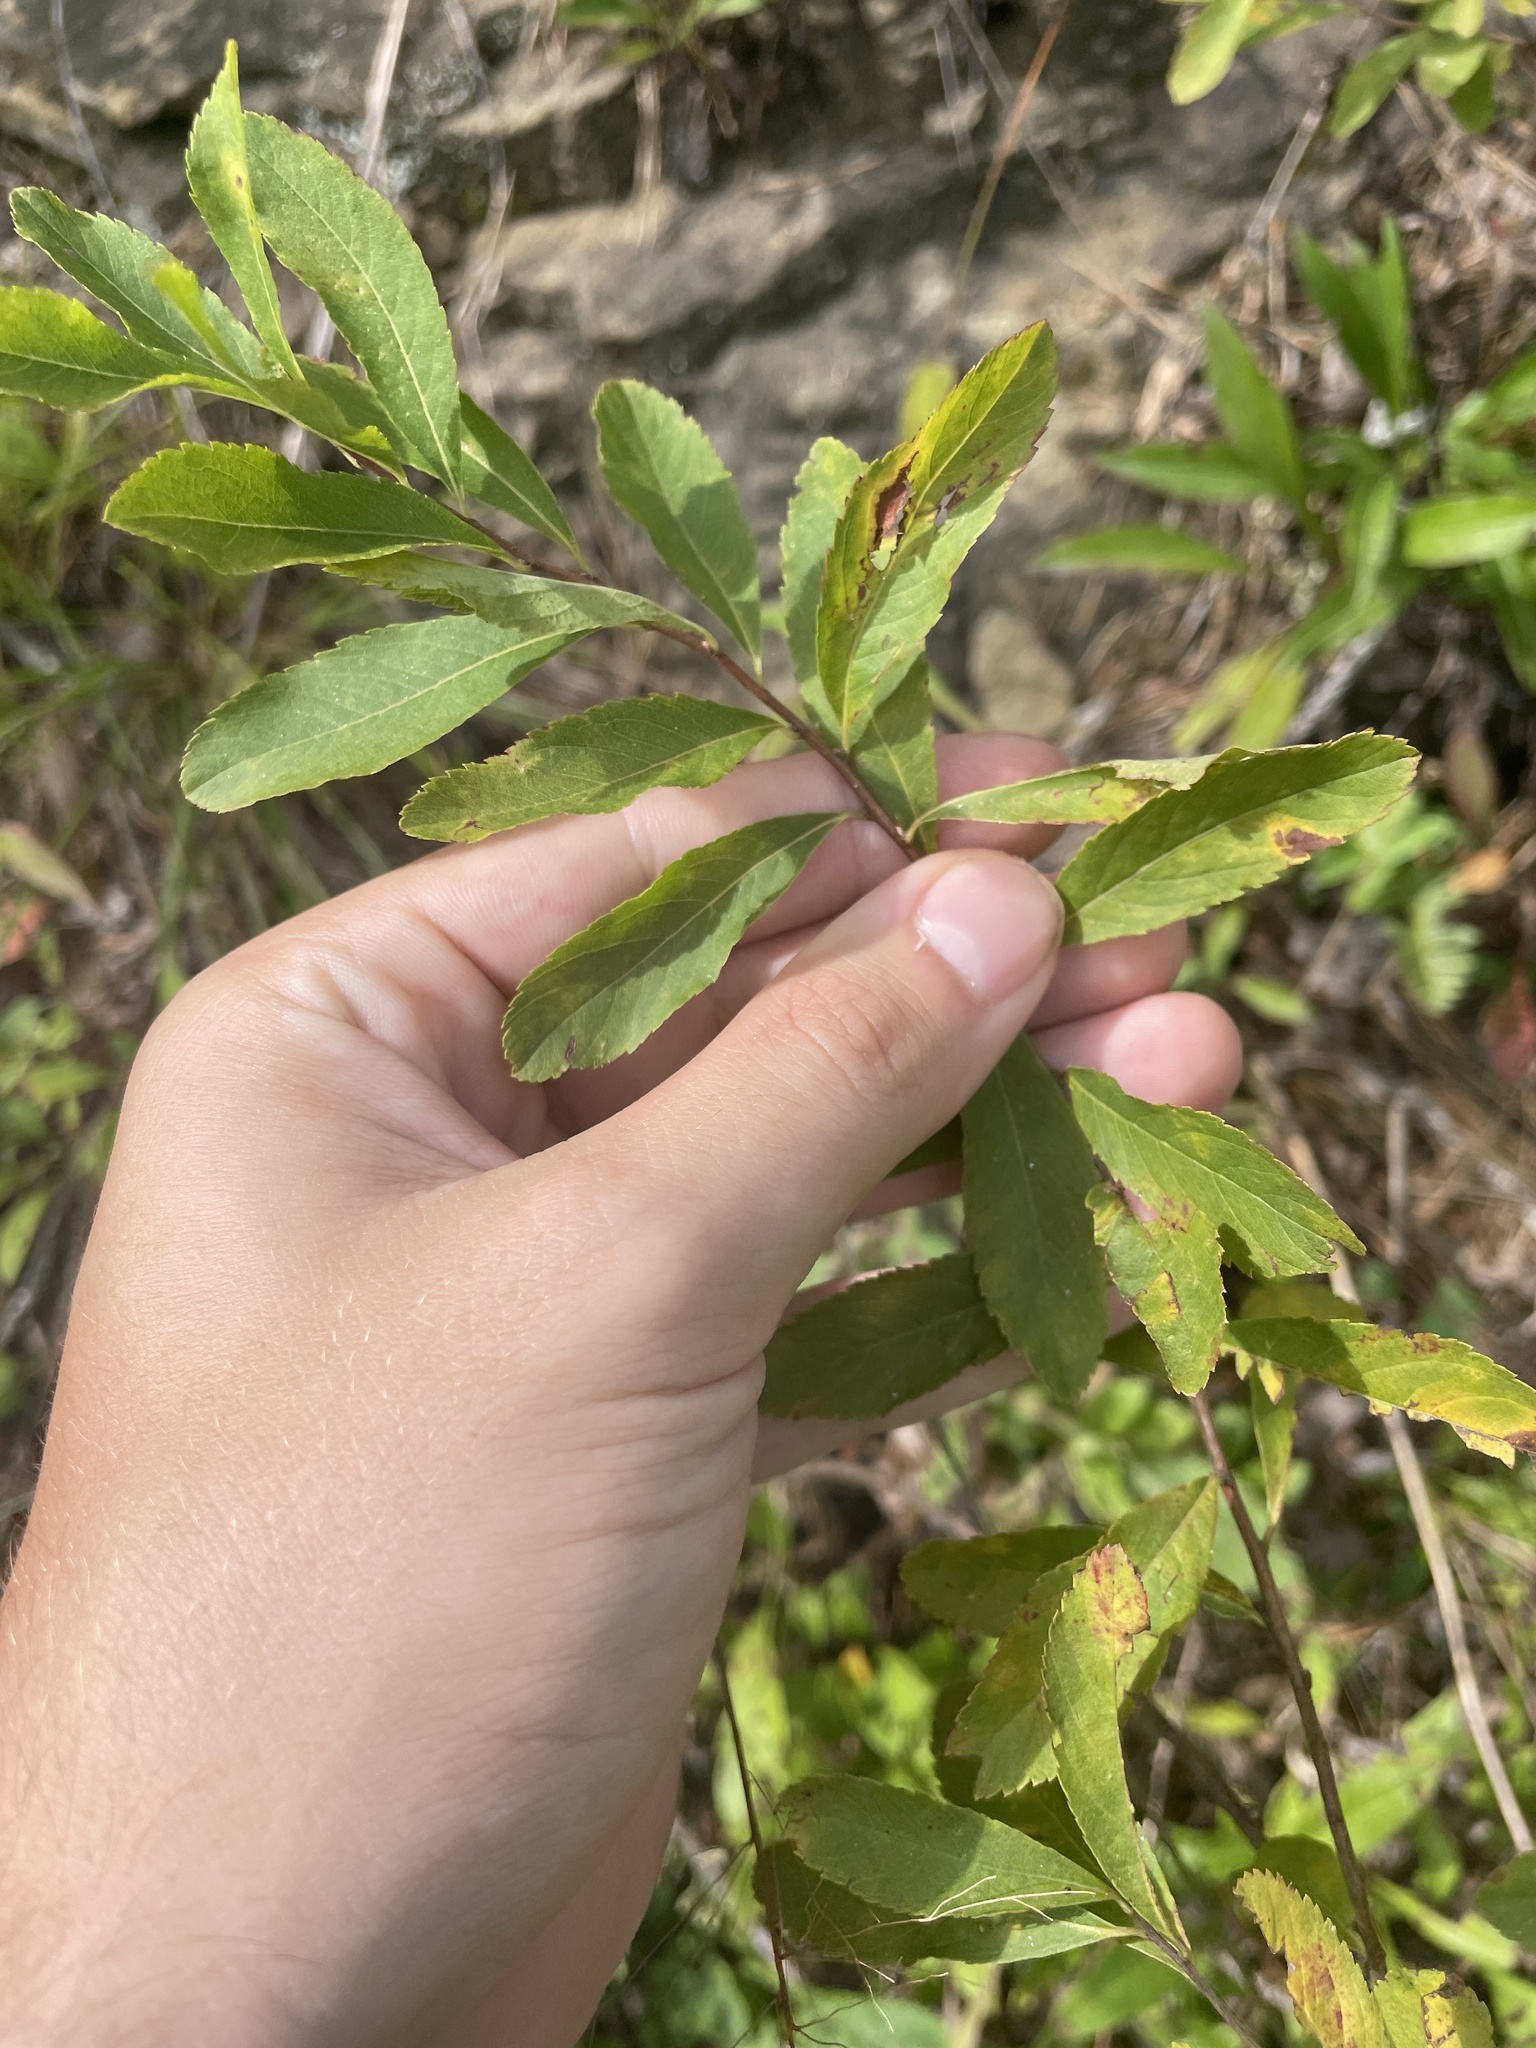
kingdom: Plantae
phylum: Tracheophyta
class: Magnoliopsida
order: Rosales
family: Rosaceae
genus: Spiraea
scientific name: Spiraea alba
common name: Pale bridewort
